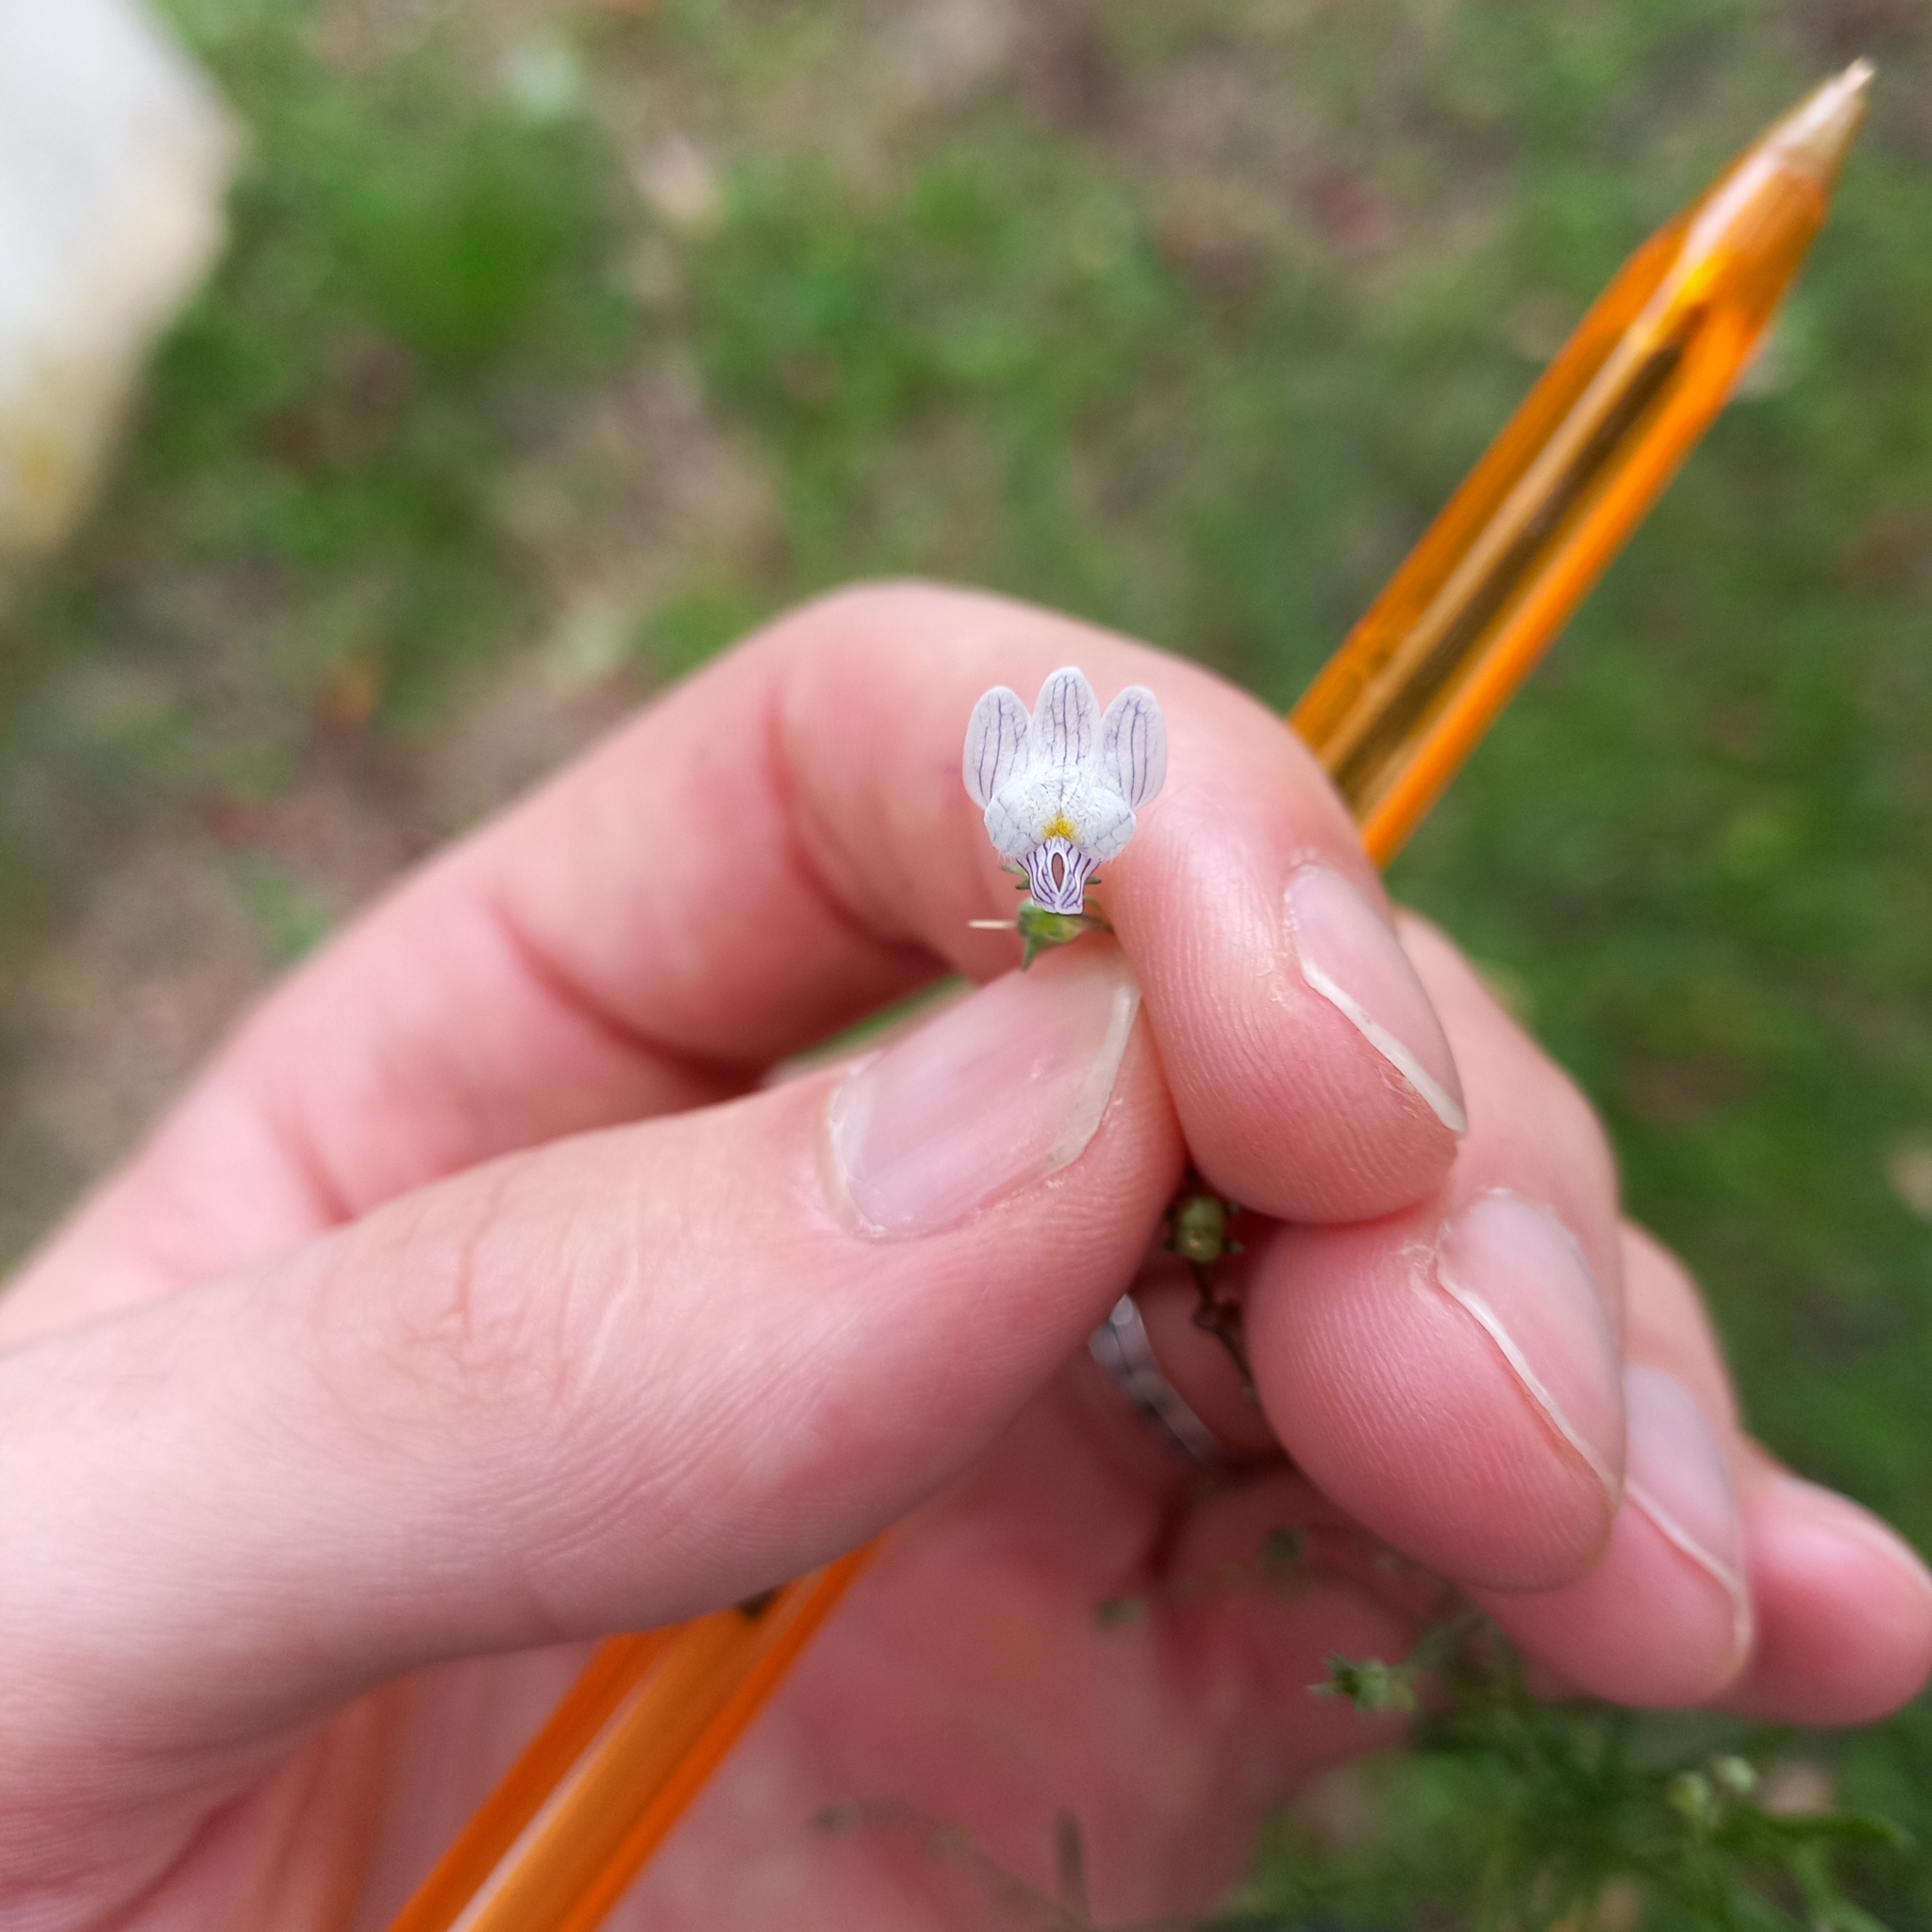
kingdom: Plantae
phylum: Tracheophyta
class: Magnoliopsida
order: Lamiales
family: Plantaginaceae
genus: Linaria
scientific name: Linaria repens
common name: Pale toadflax
